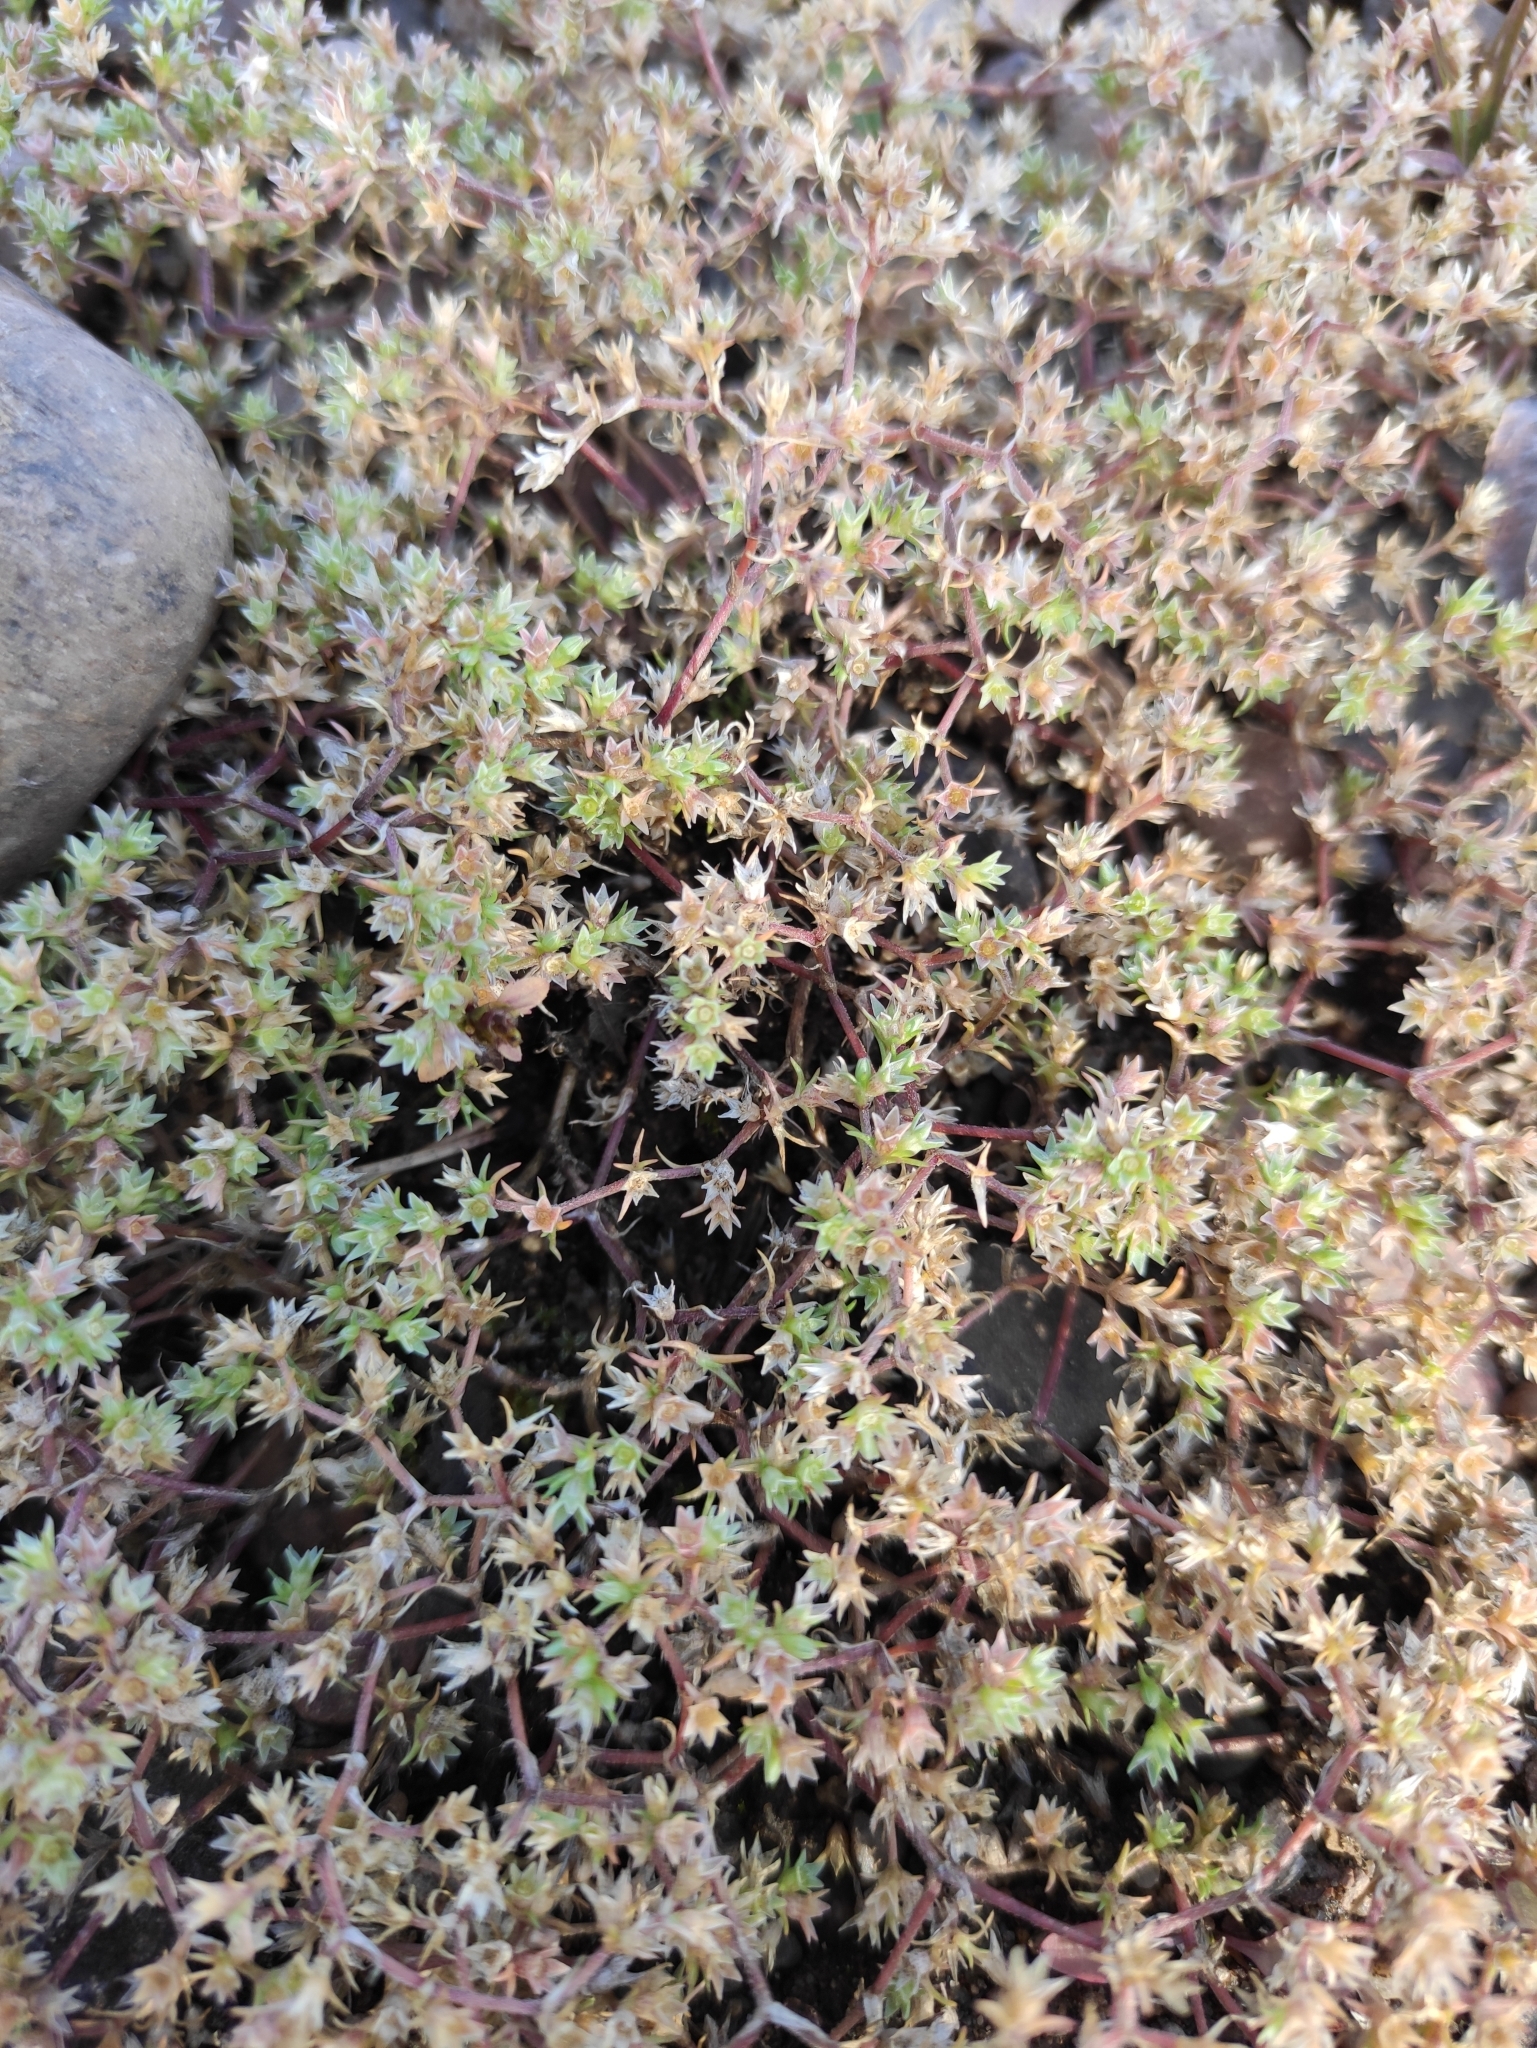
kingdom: Plantae
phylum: Tracheophyta
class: Magnoliopsida
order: Caryophyllales
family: Caryophyllaceae
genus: Scleranthus
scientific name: Scleranthus annuus
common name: Annual knawel
